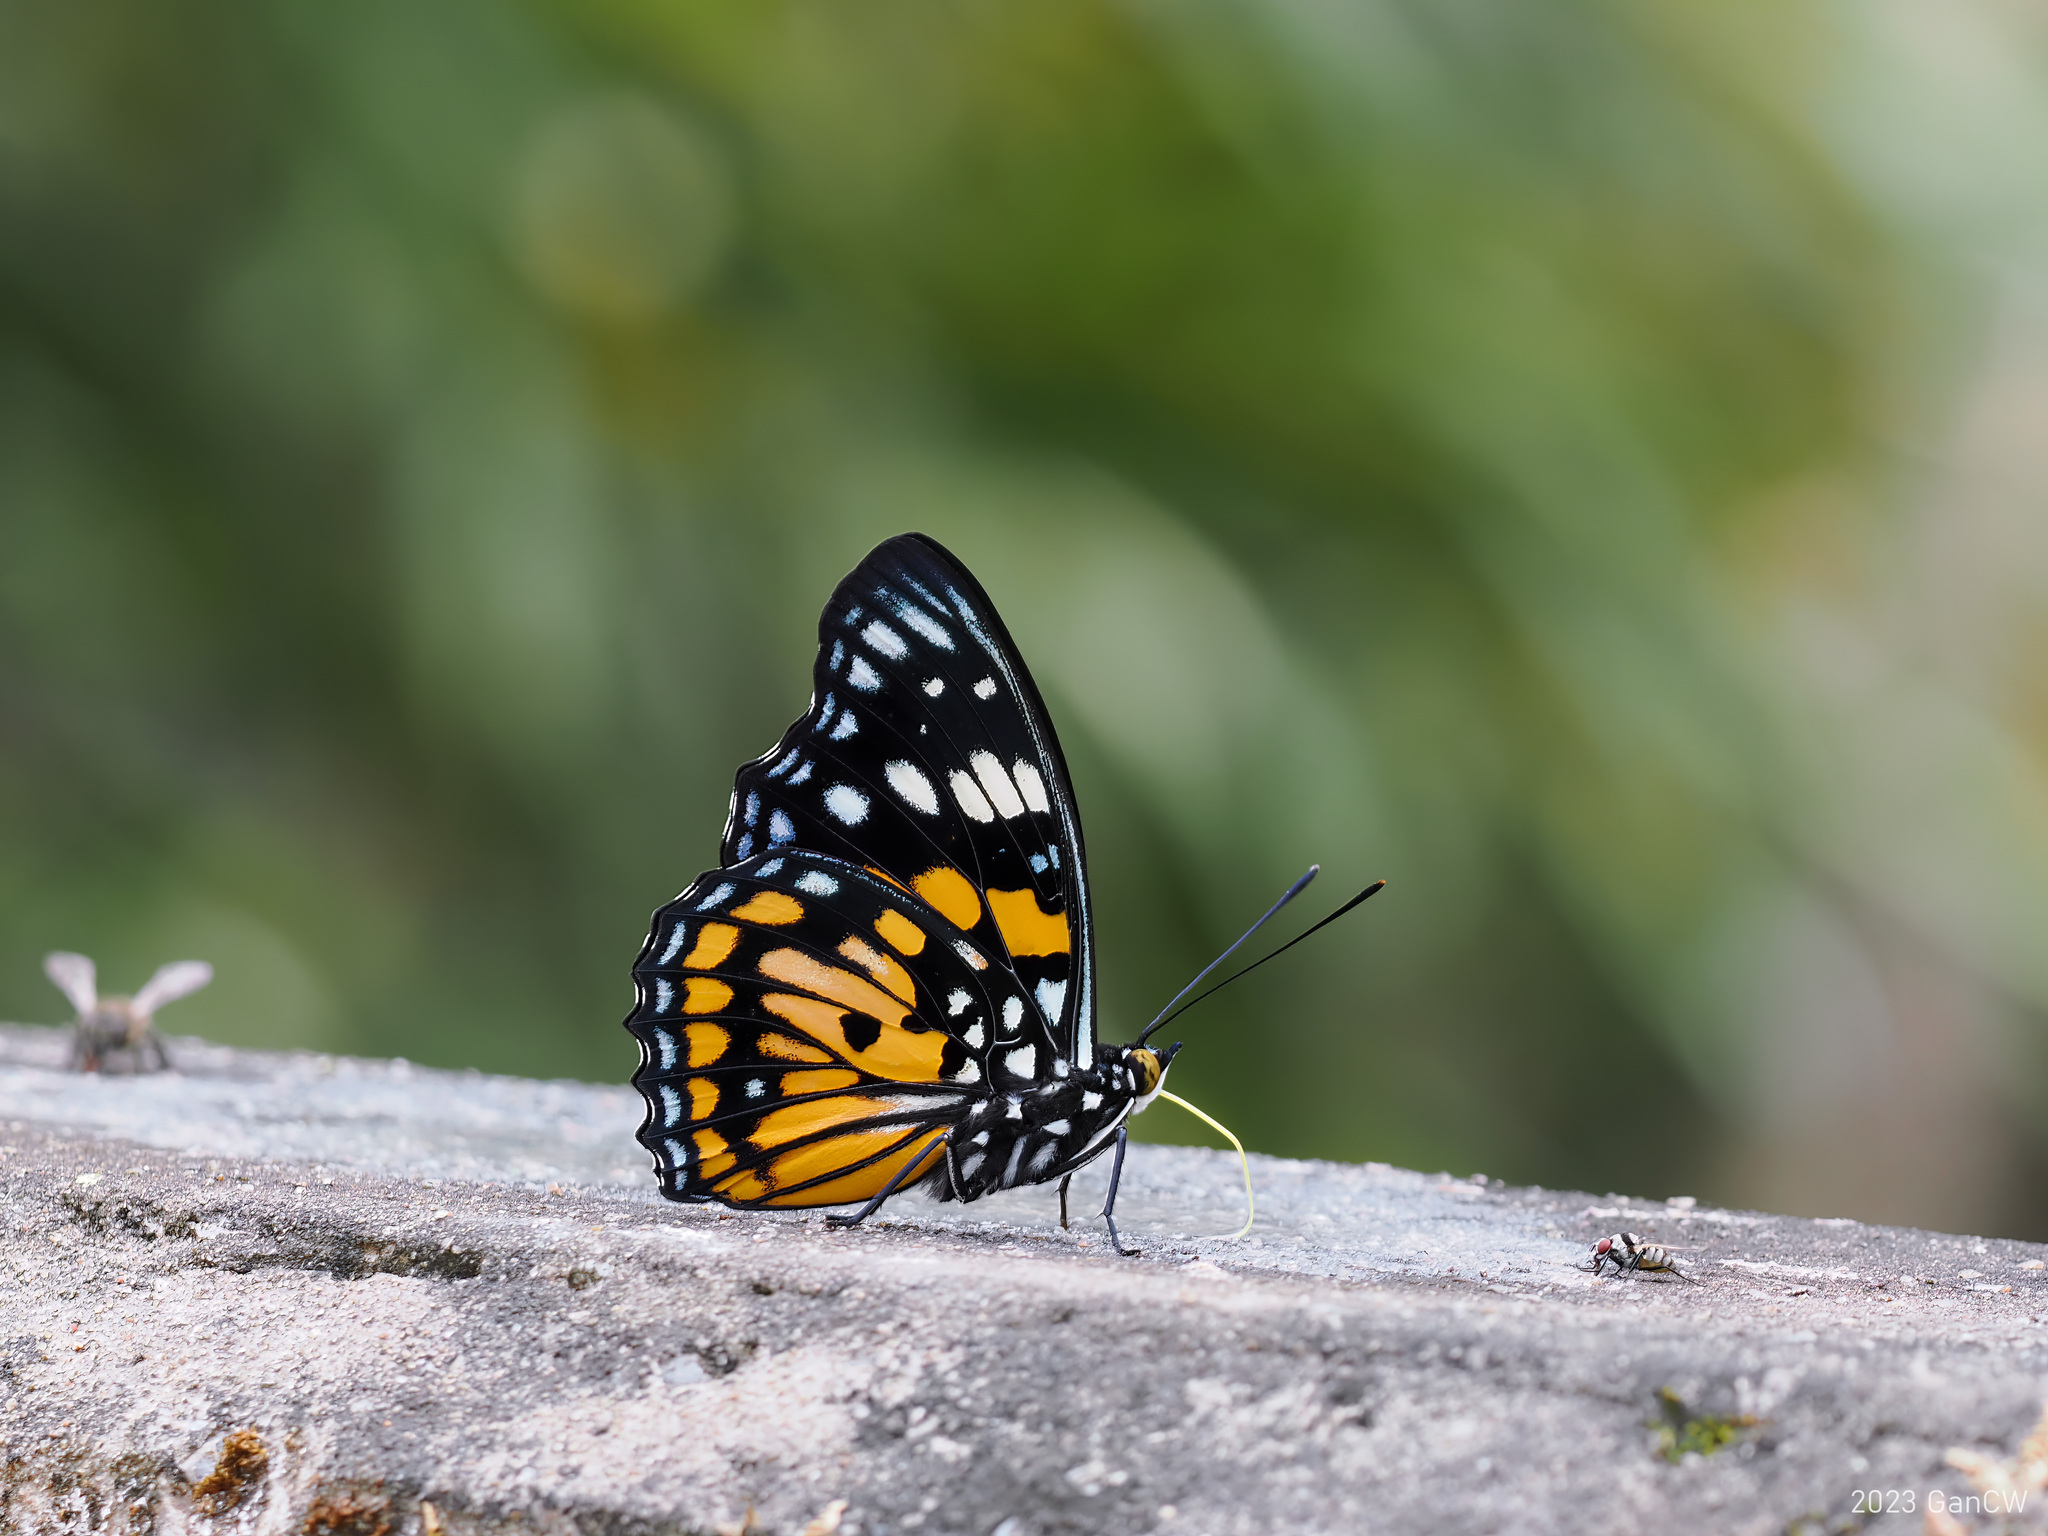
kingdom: Animalia
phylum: Arthropoda
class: Insecta
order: Lepidoptera
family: Nymphalidae
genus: Sephisa
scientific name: Sephisa chandra
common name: Eastern courtier
